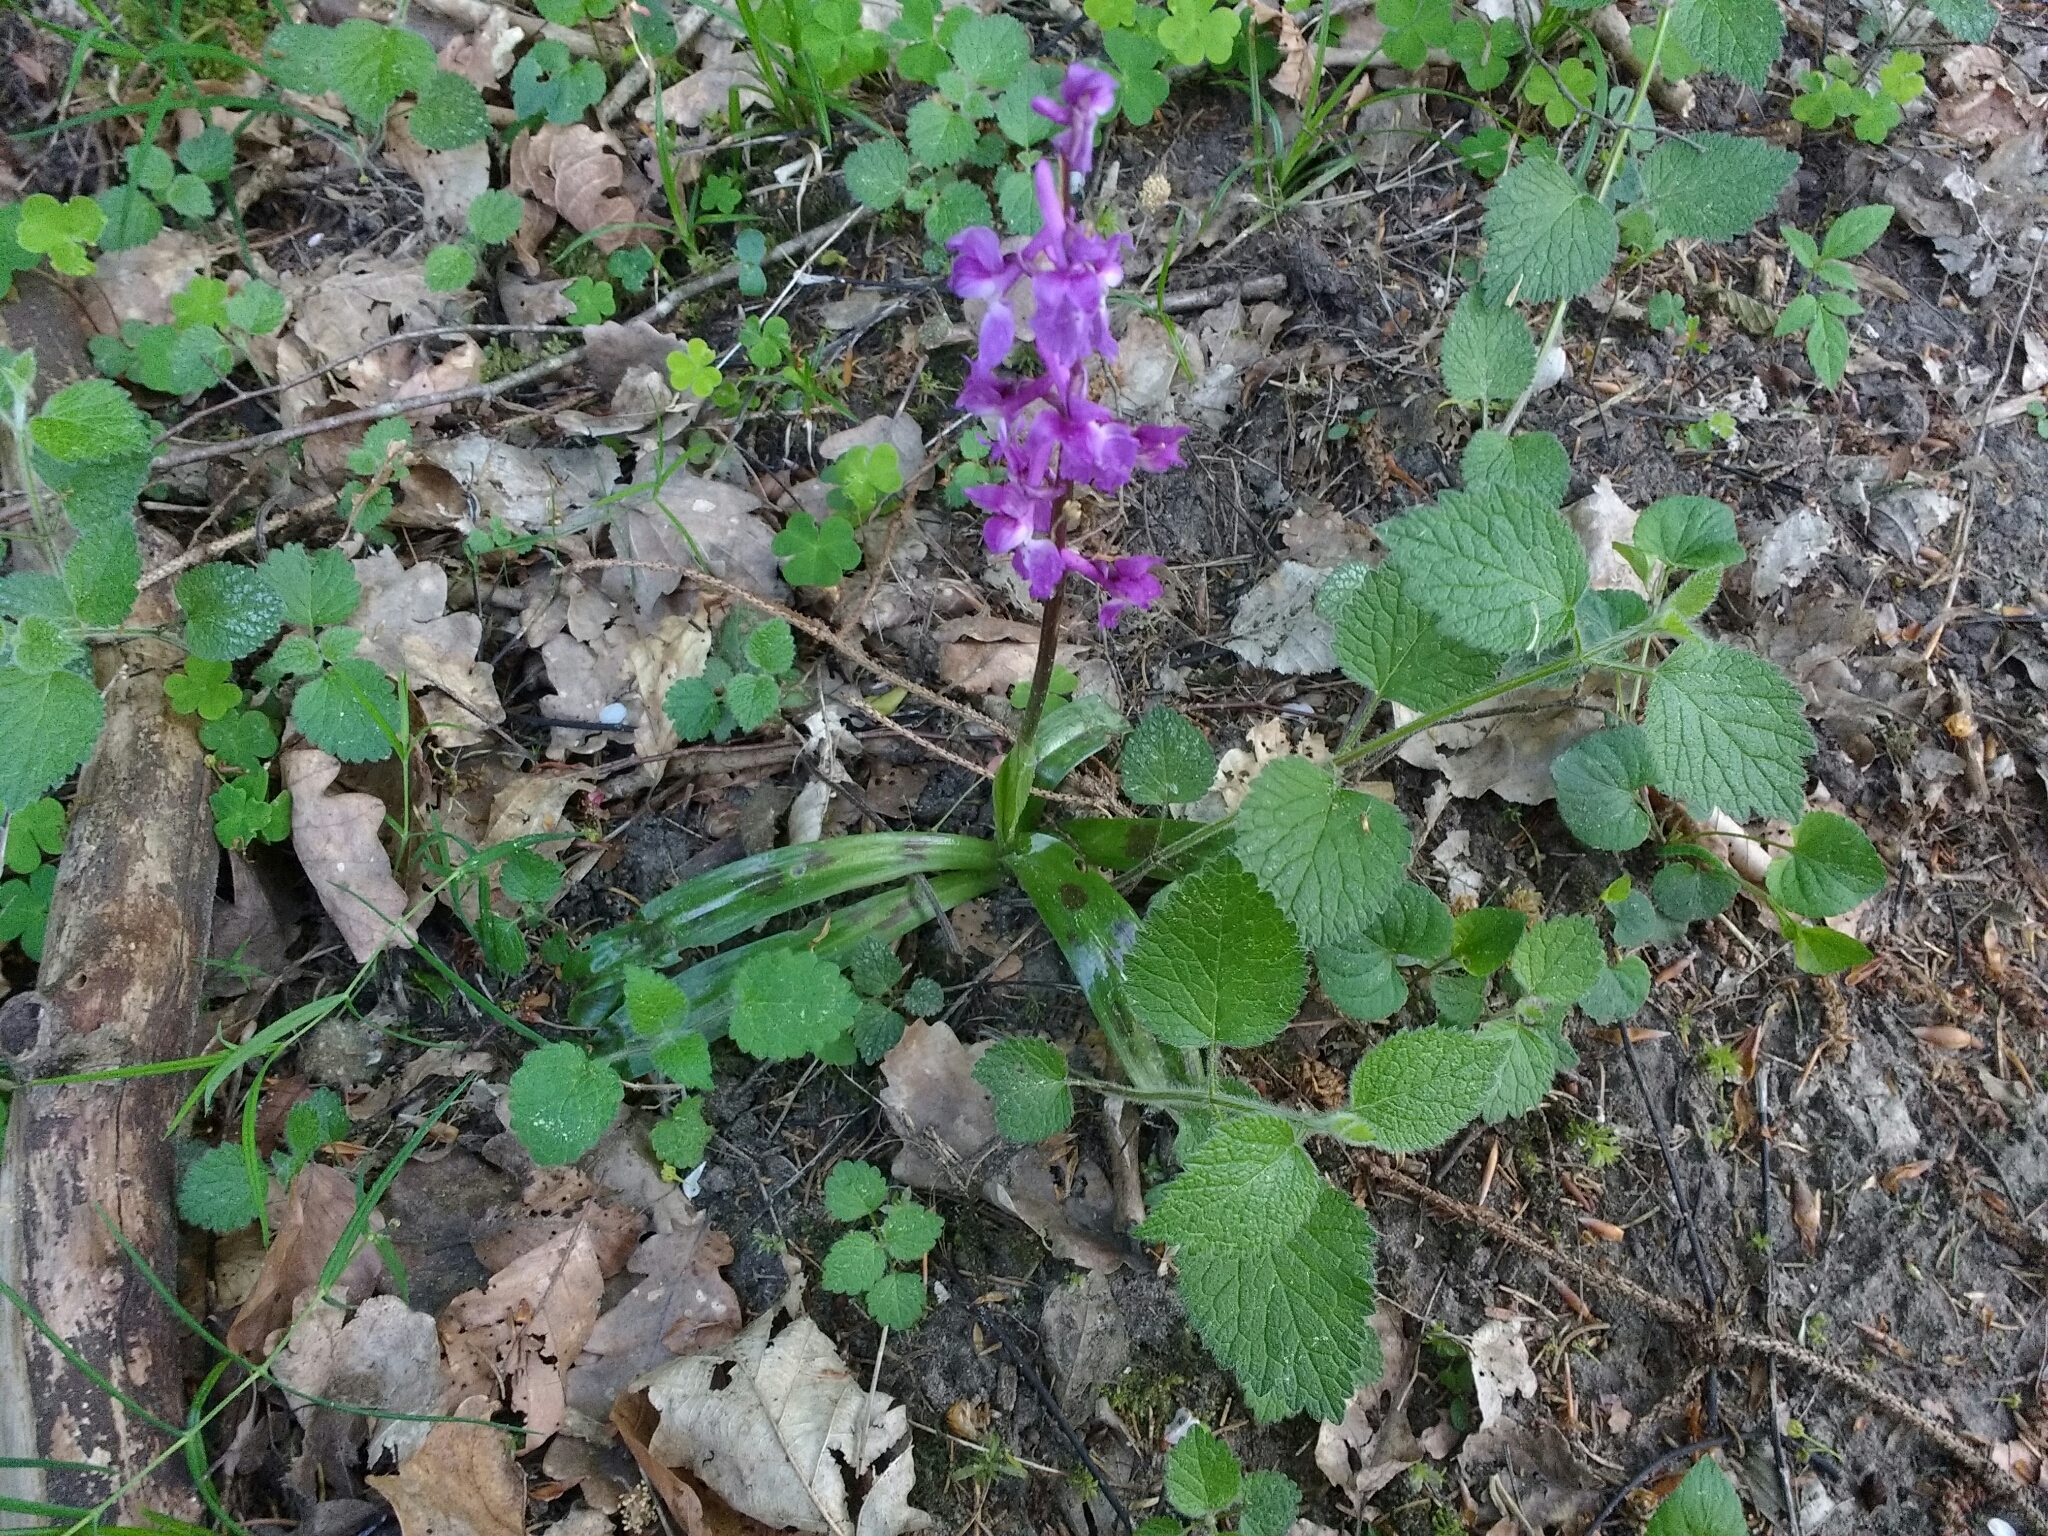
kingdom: Plantae
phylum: Tracheophyta
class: Liliopsida
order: Asparagales
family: Orchidaceae
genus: Orchis
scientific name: Orchis mascula
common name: Early-purple orchid
